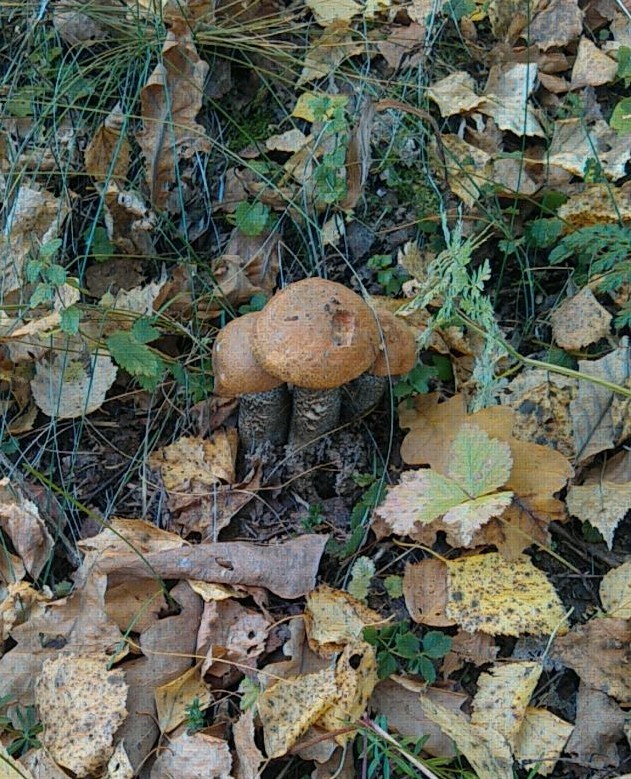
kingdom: Fungi
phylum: Basidiomycota
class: Agaricomycetes
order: Boletales
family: Boletaceae
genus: Leccinum
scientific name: Leccinum aurantiacum
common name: Orange bolete
